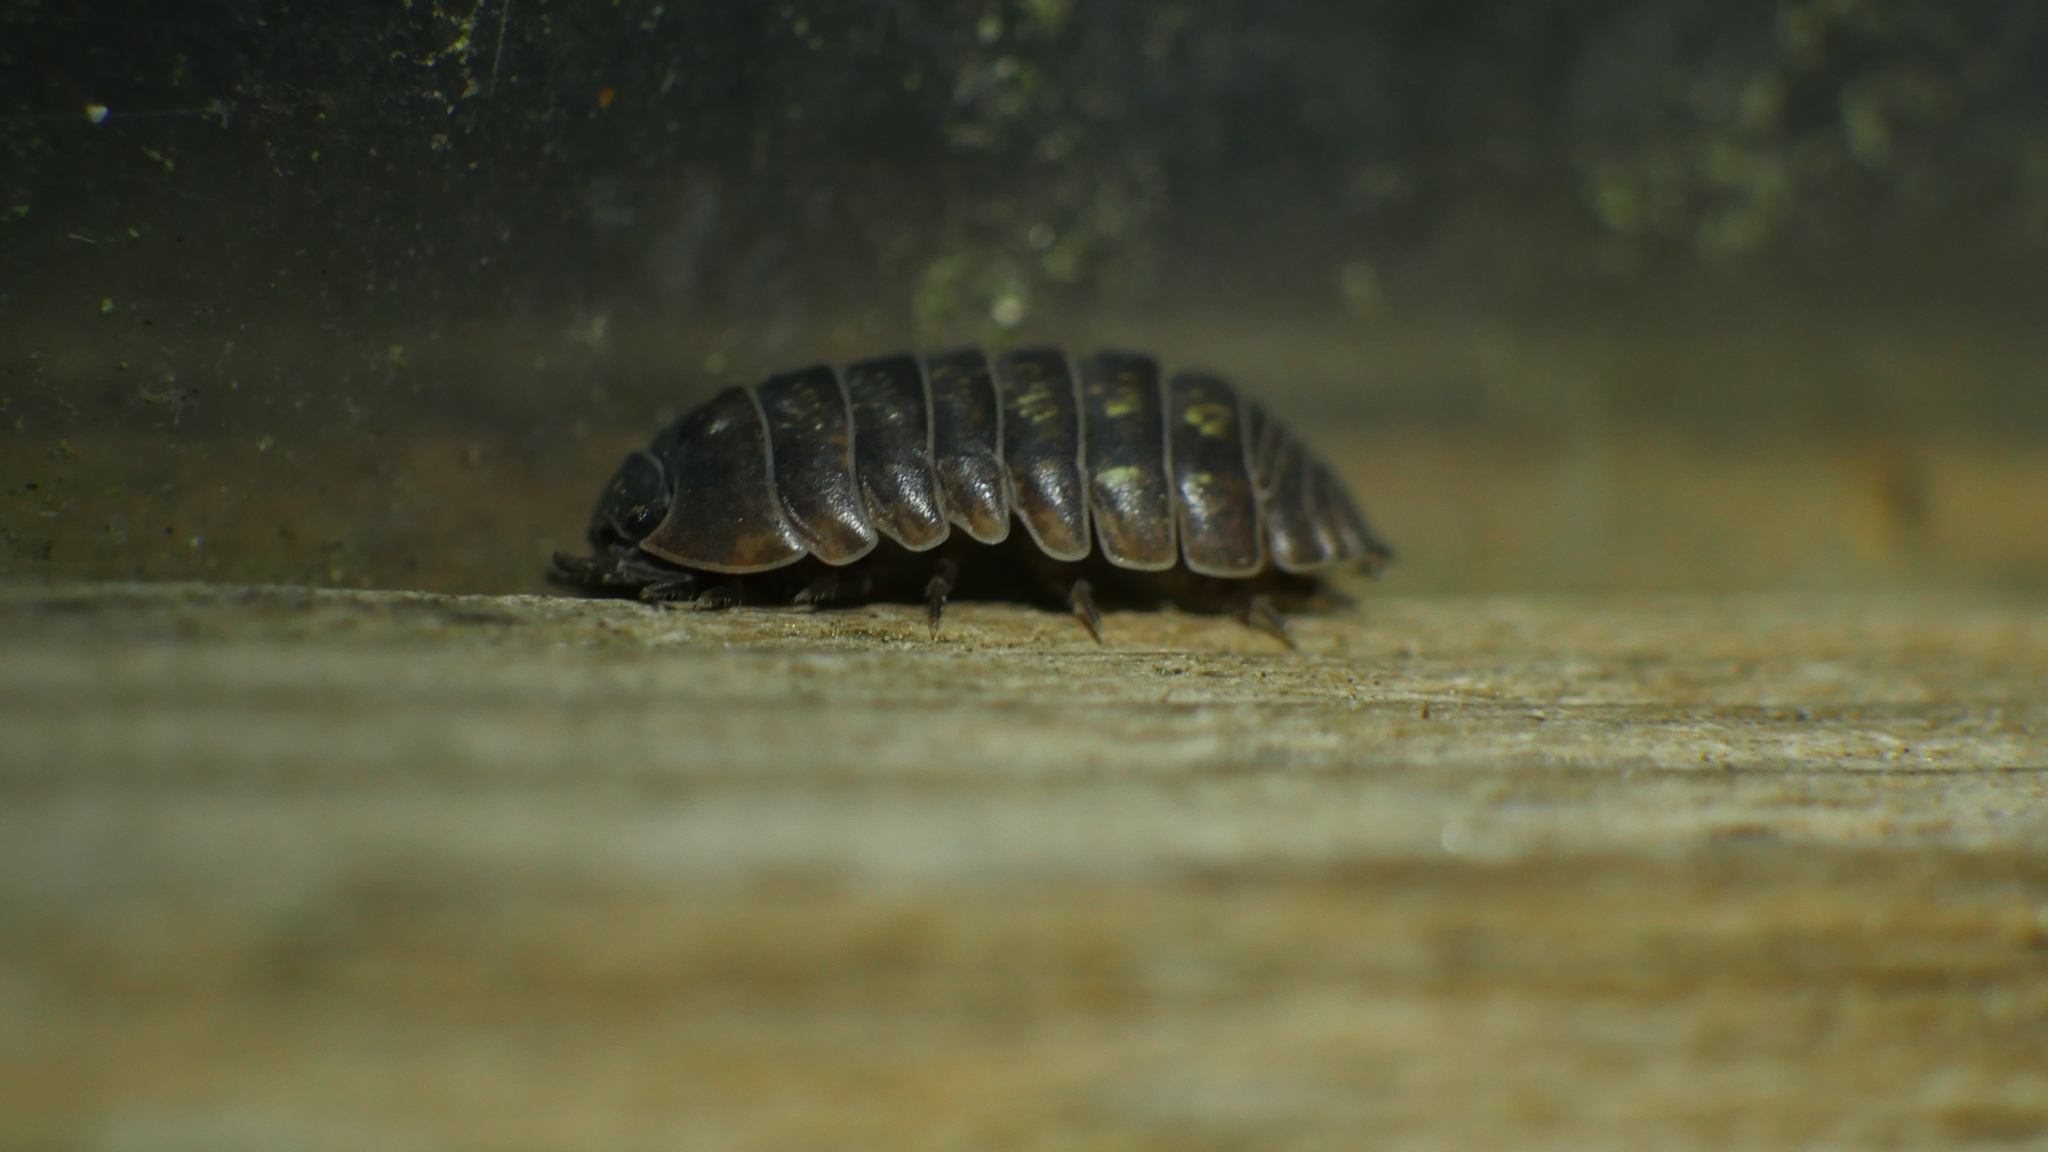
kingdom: Animalia
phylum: Arthropoda
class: Malacostraca
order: Isopoda
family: Armadillidiidae
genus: Armadillidium
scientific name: Armadillidium vulgare
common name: Common pill woodlouse
